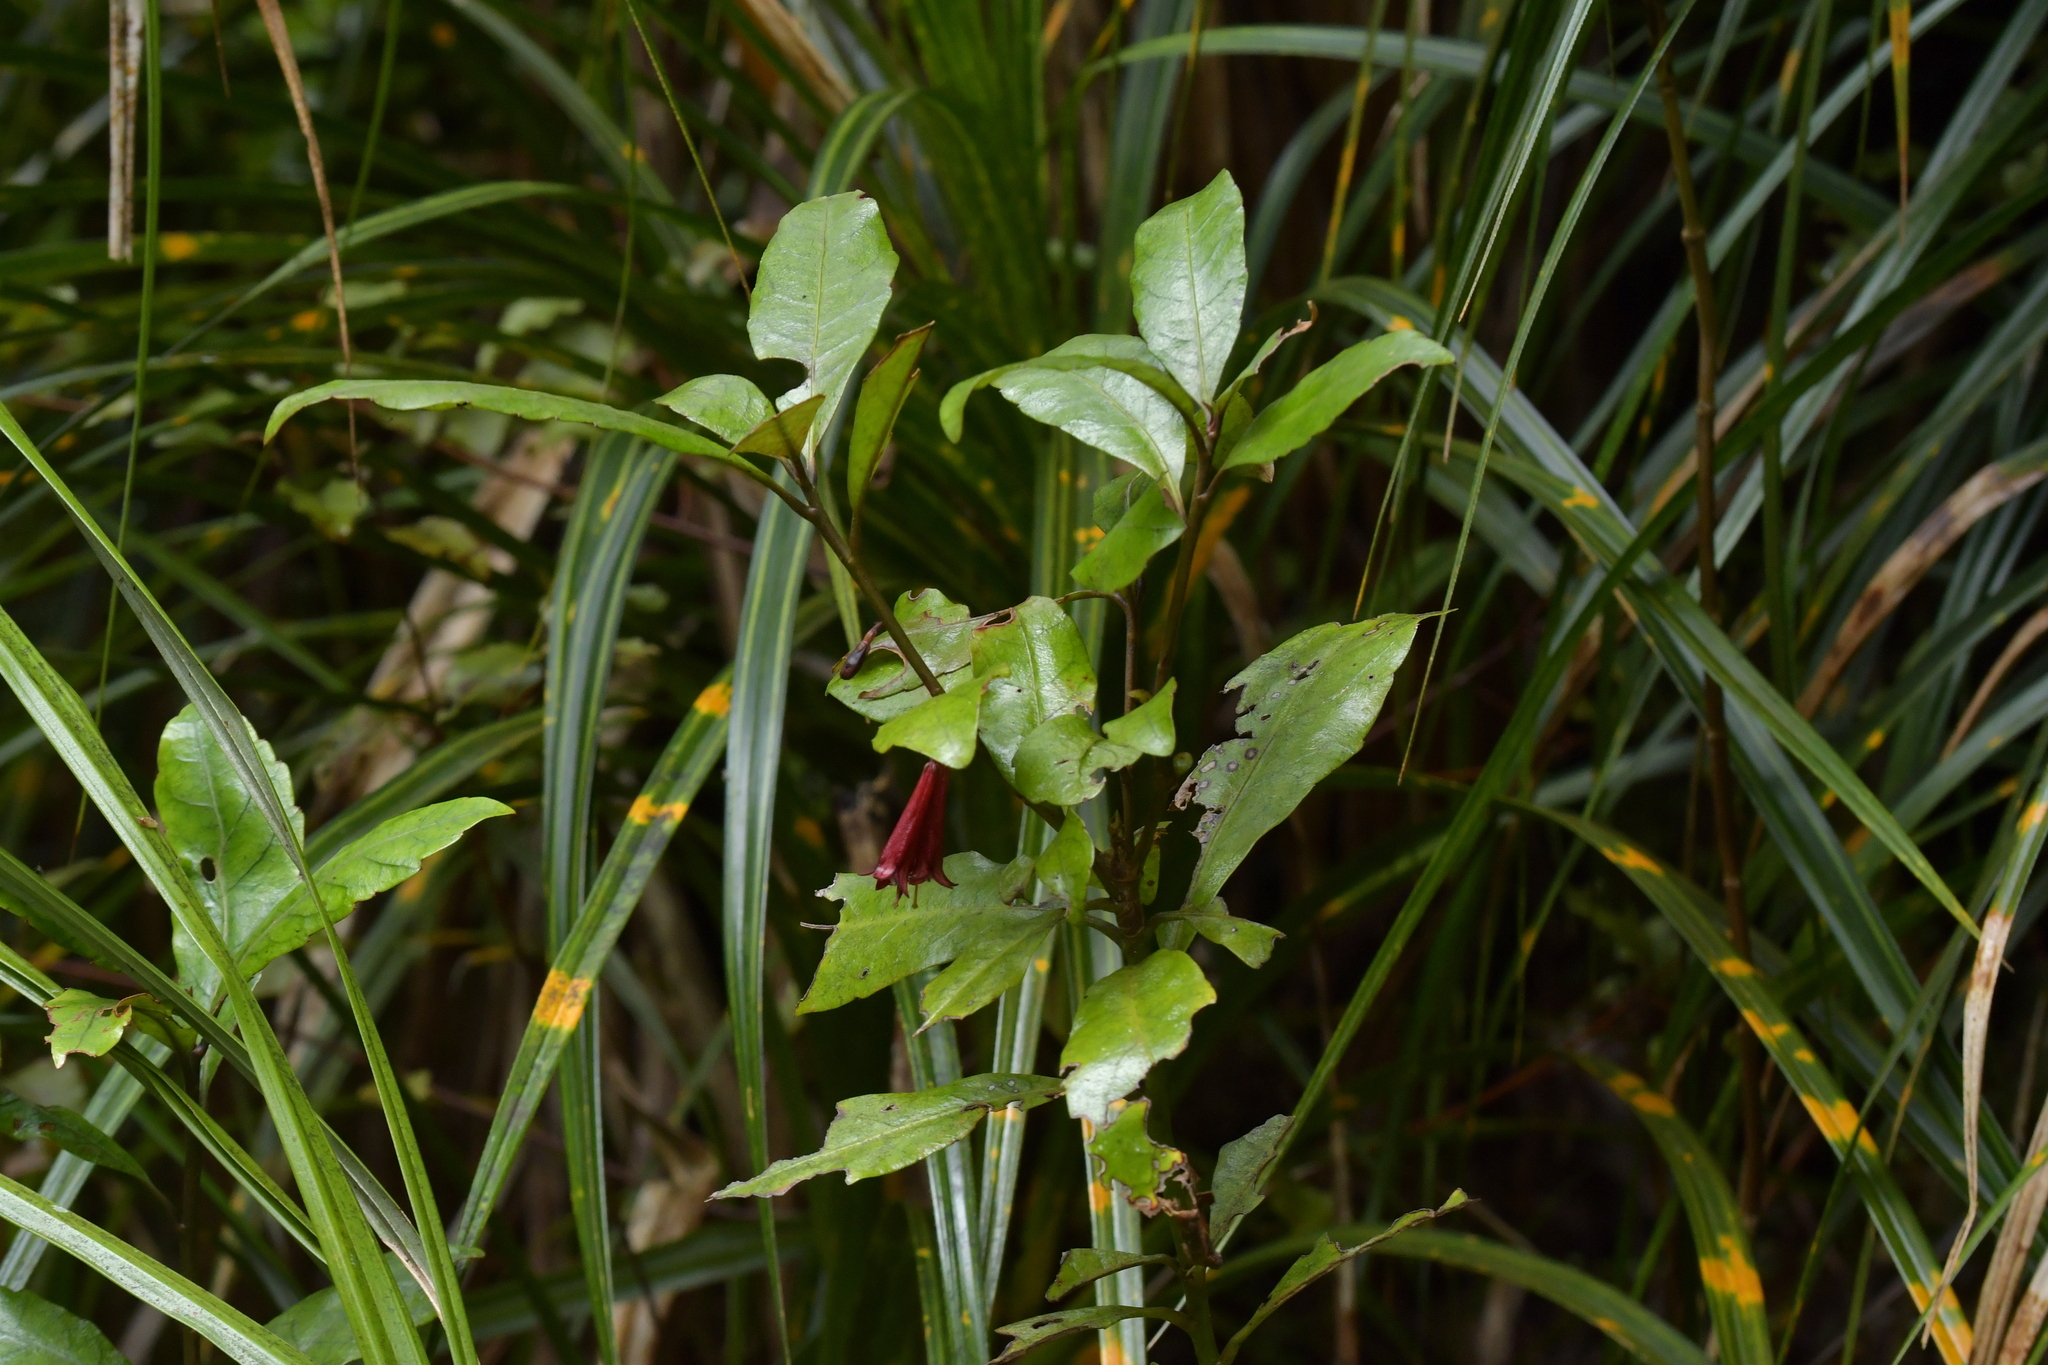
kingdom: Plantae
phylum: Tracheophyta
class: Magnoliopsida
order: Asterales
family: Alseuosmiaceae
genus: Alseuosmia
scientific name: Alseuosmia macrophylla
